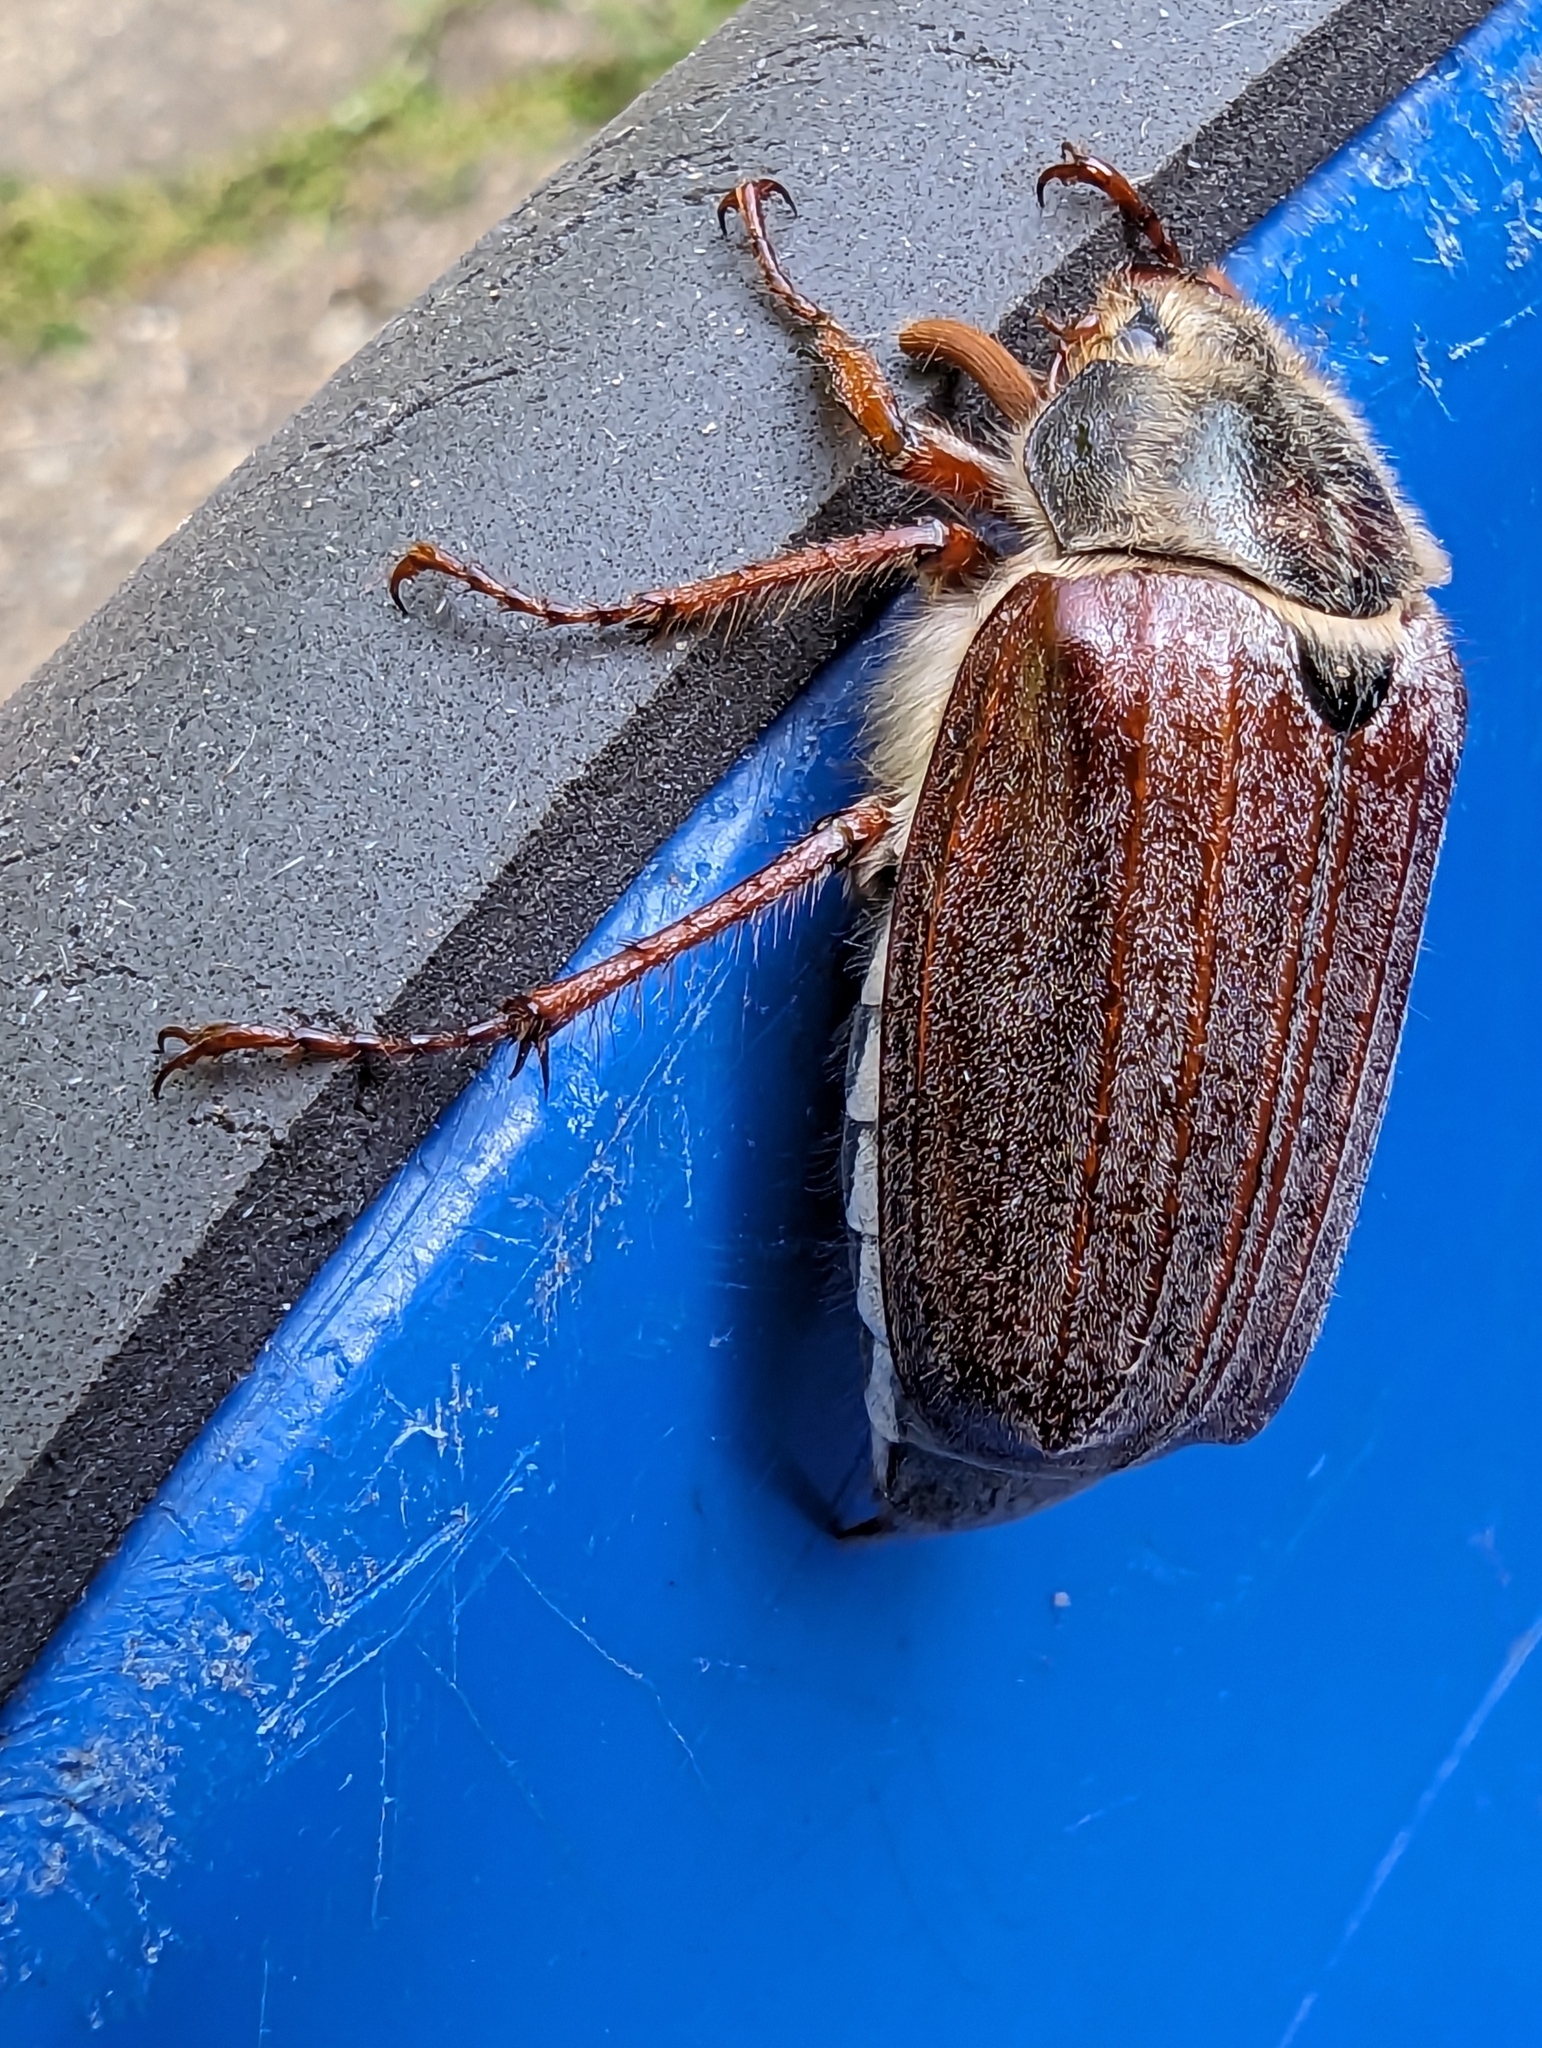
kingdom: Animalia
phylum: Arthropoda
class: Insecta
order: Coleoptera
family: Scarabaeidae
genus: Melolontha
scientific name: Melolontha melolontha
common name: Cockchafer maybeetle
